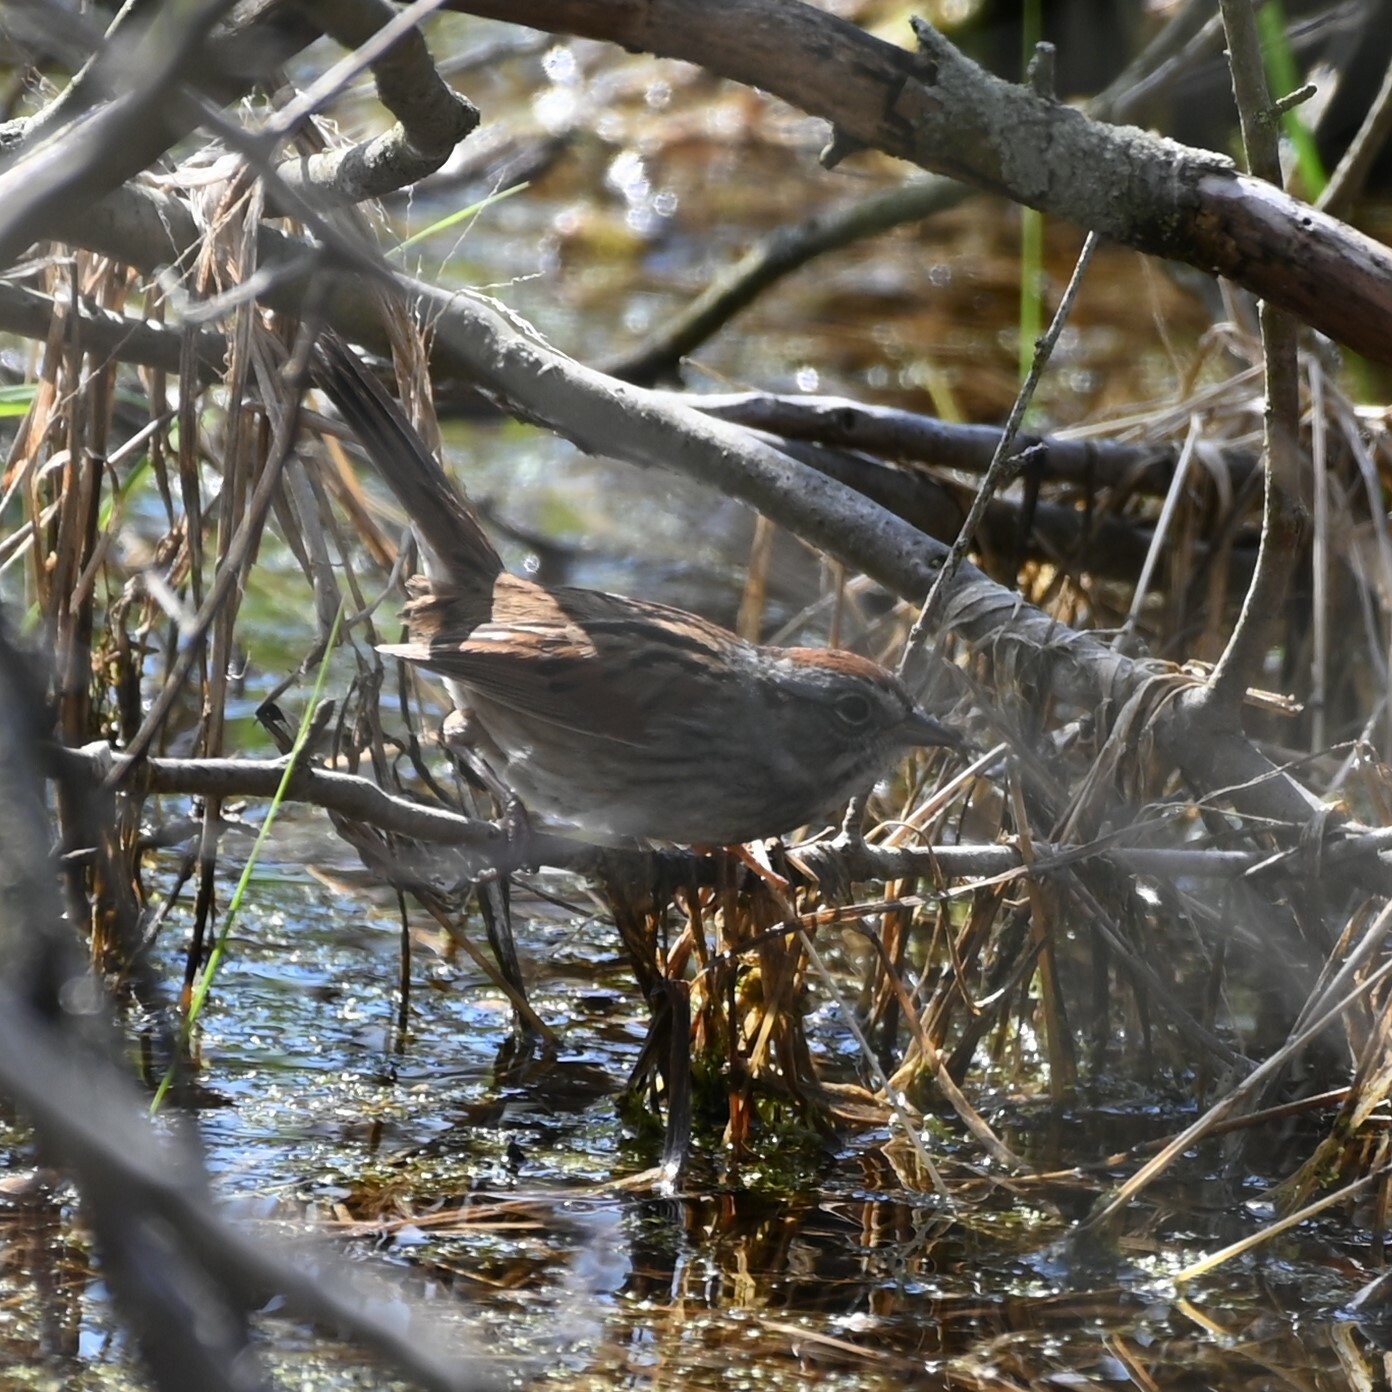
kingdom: Animalia
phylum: Chordata
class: Aves
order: Passeriformes
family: Passerellidae
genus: Melospiza
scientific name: Melospiza georgiana
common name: Swamp sparrow
